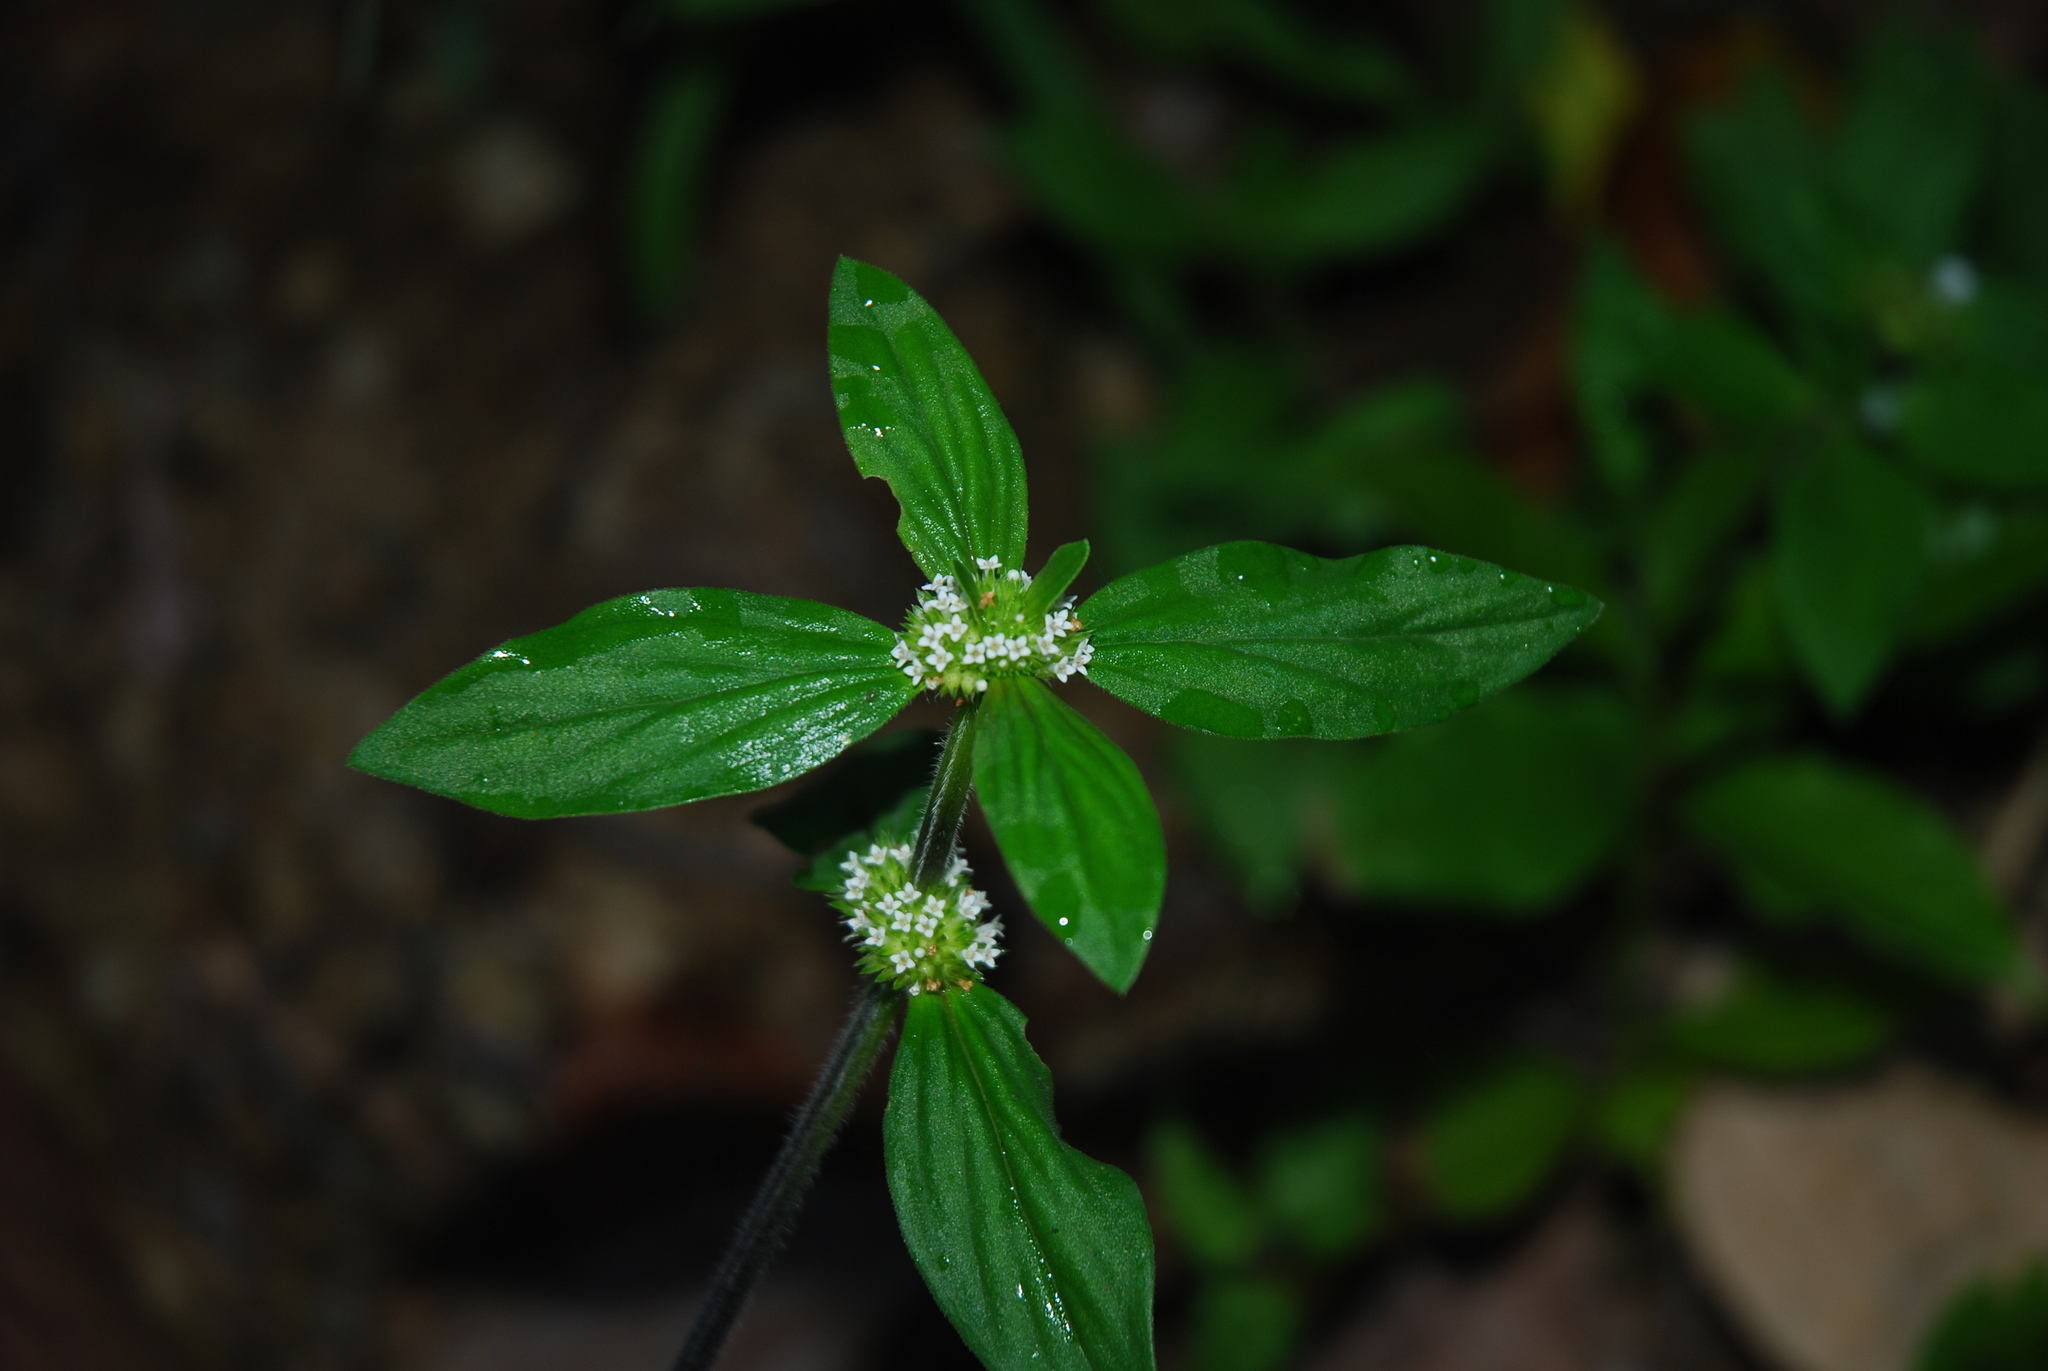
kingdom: Plantae
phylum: Tracheophyta
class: Magnoliopsida
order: Gentianales
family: Rubiaceae
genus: Mitracarpus
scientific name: Mitracarpus hirtus
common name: Tropical girdlepod
